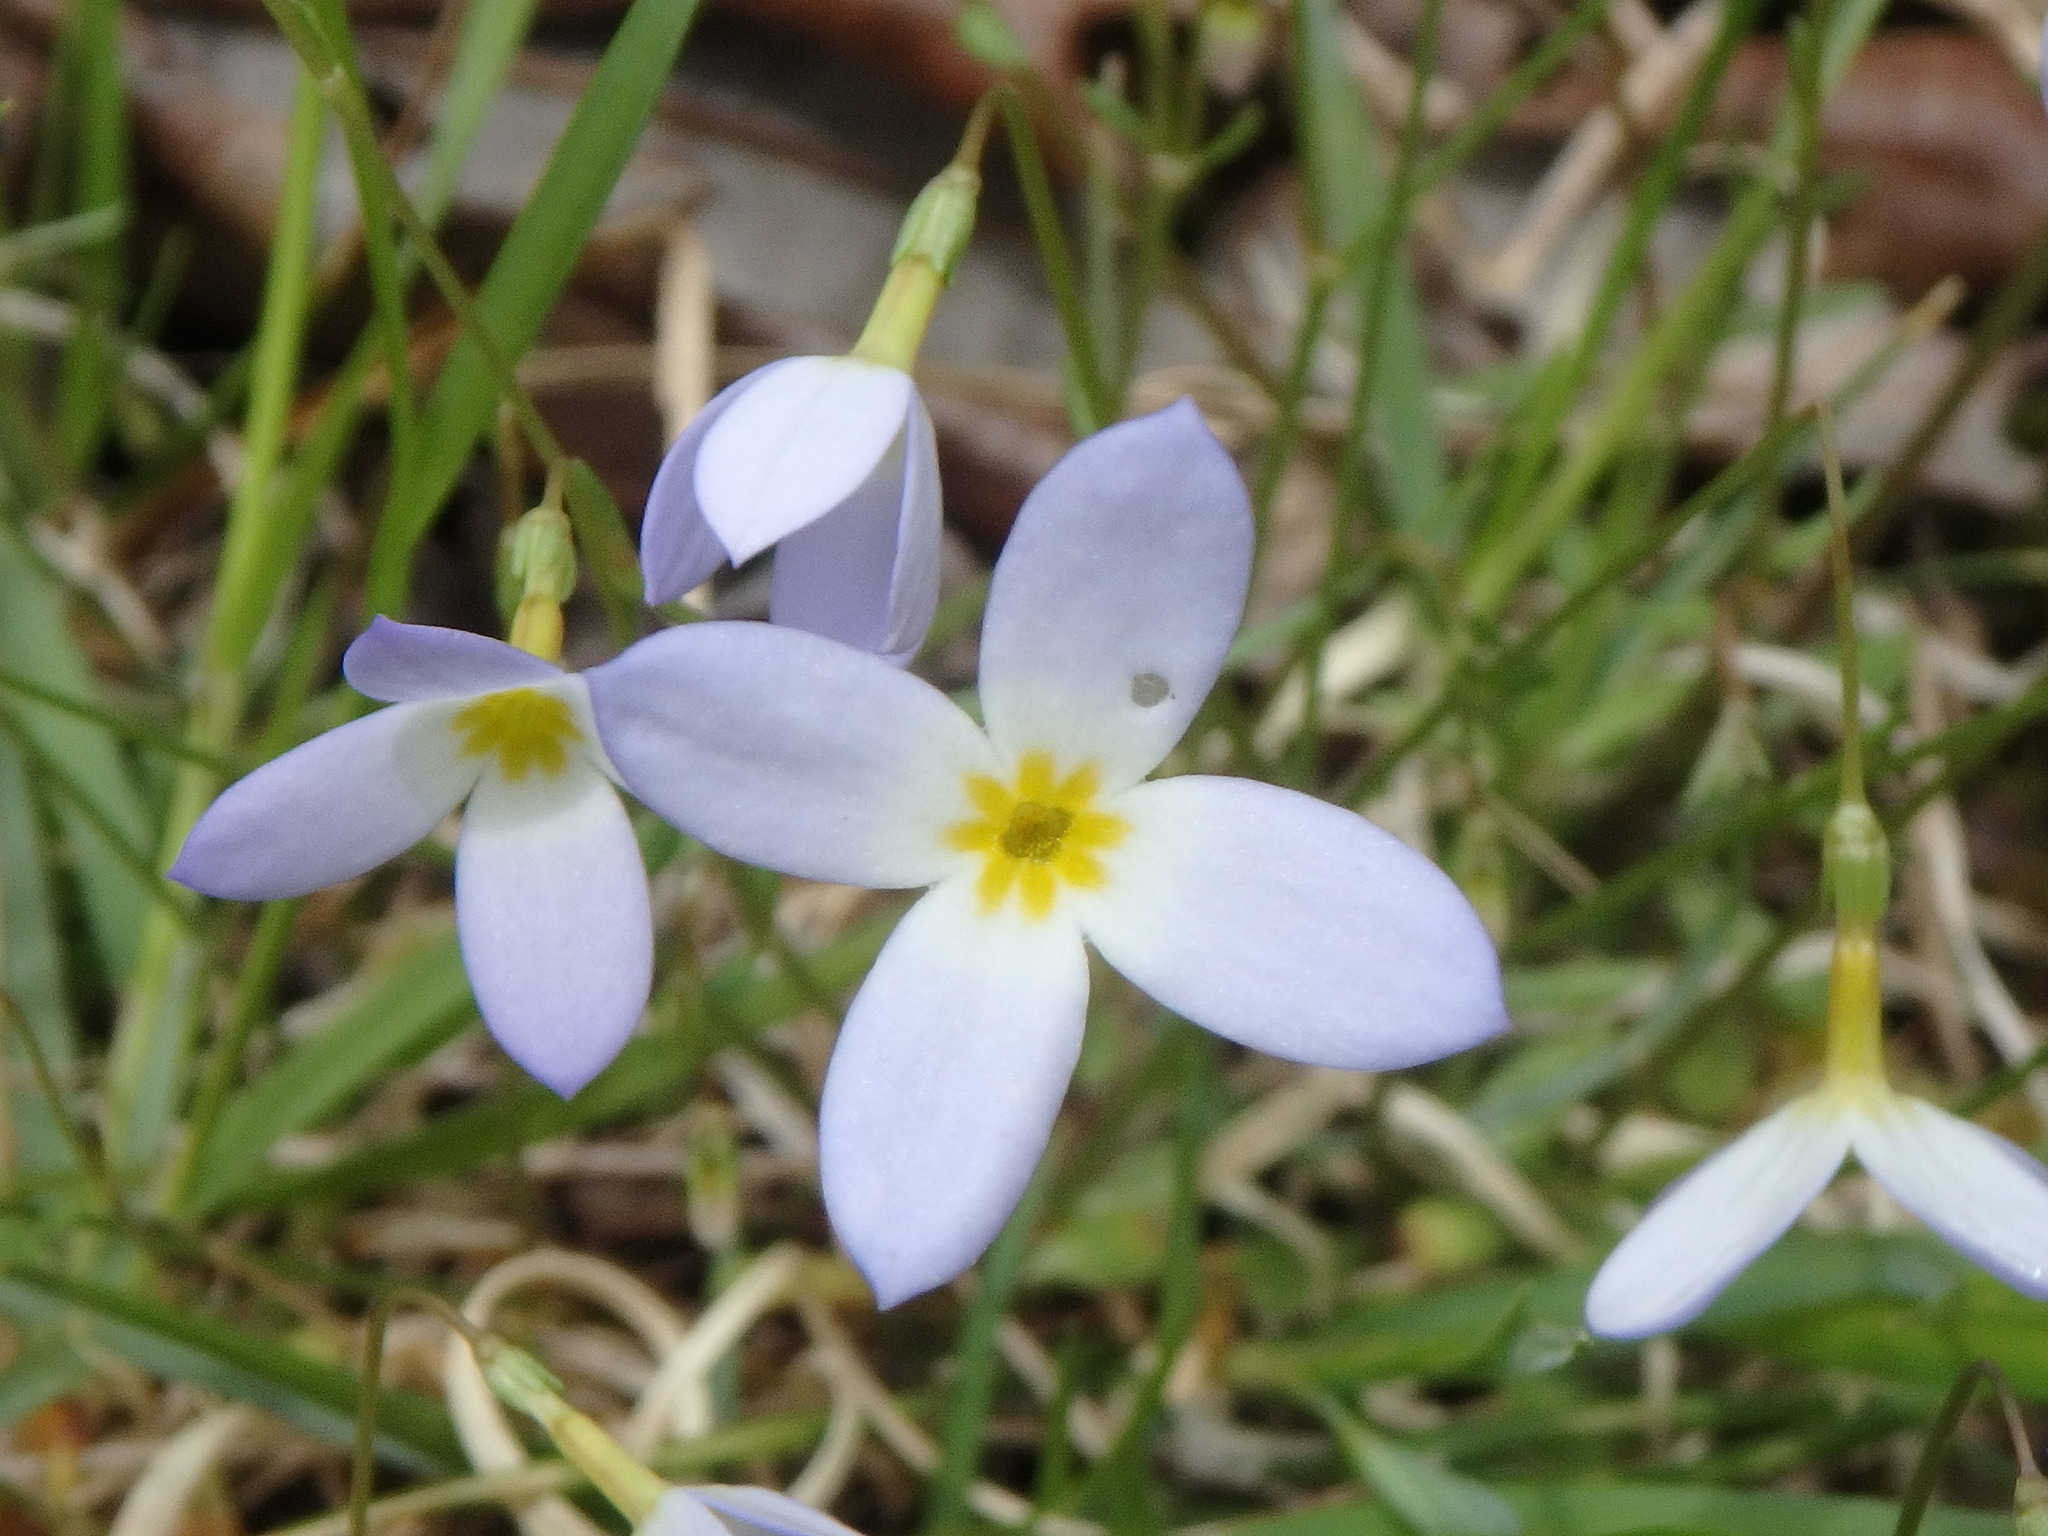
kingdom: Plantae
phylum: Tracheophyta
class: Magnoliopsida
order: Gentianales
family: Rubiaceae
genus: Houstonia
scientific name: Houstonia caerulea
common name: Bluets
